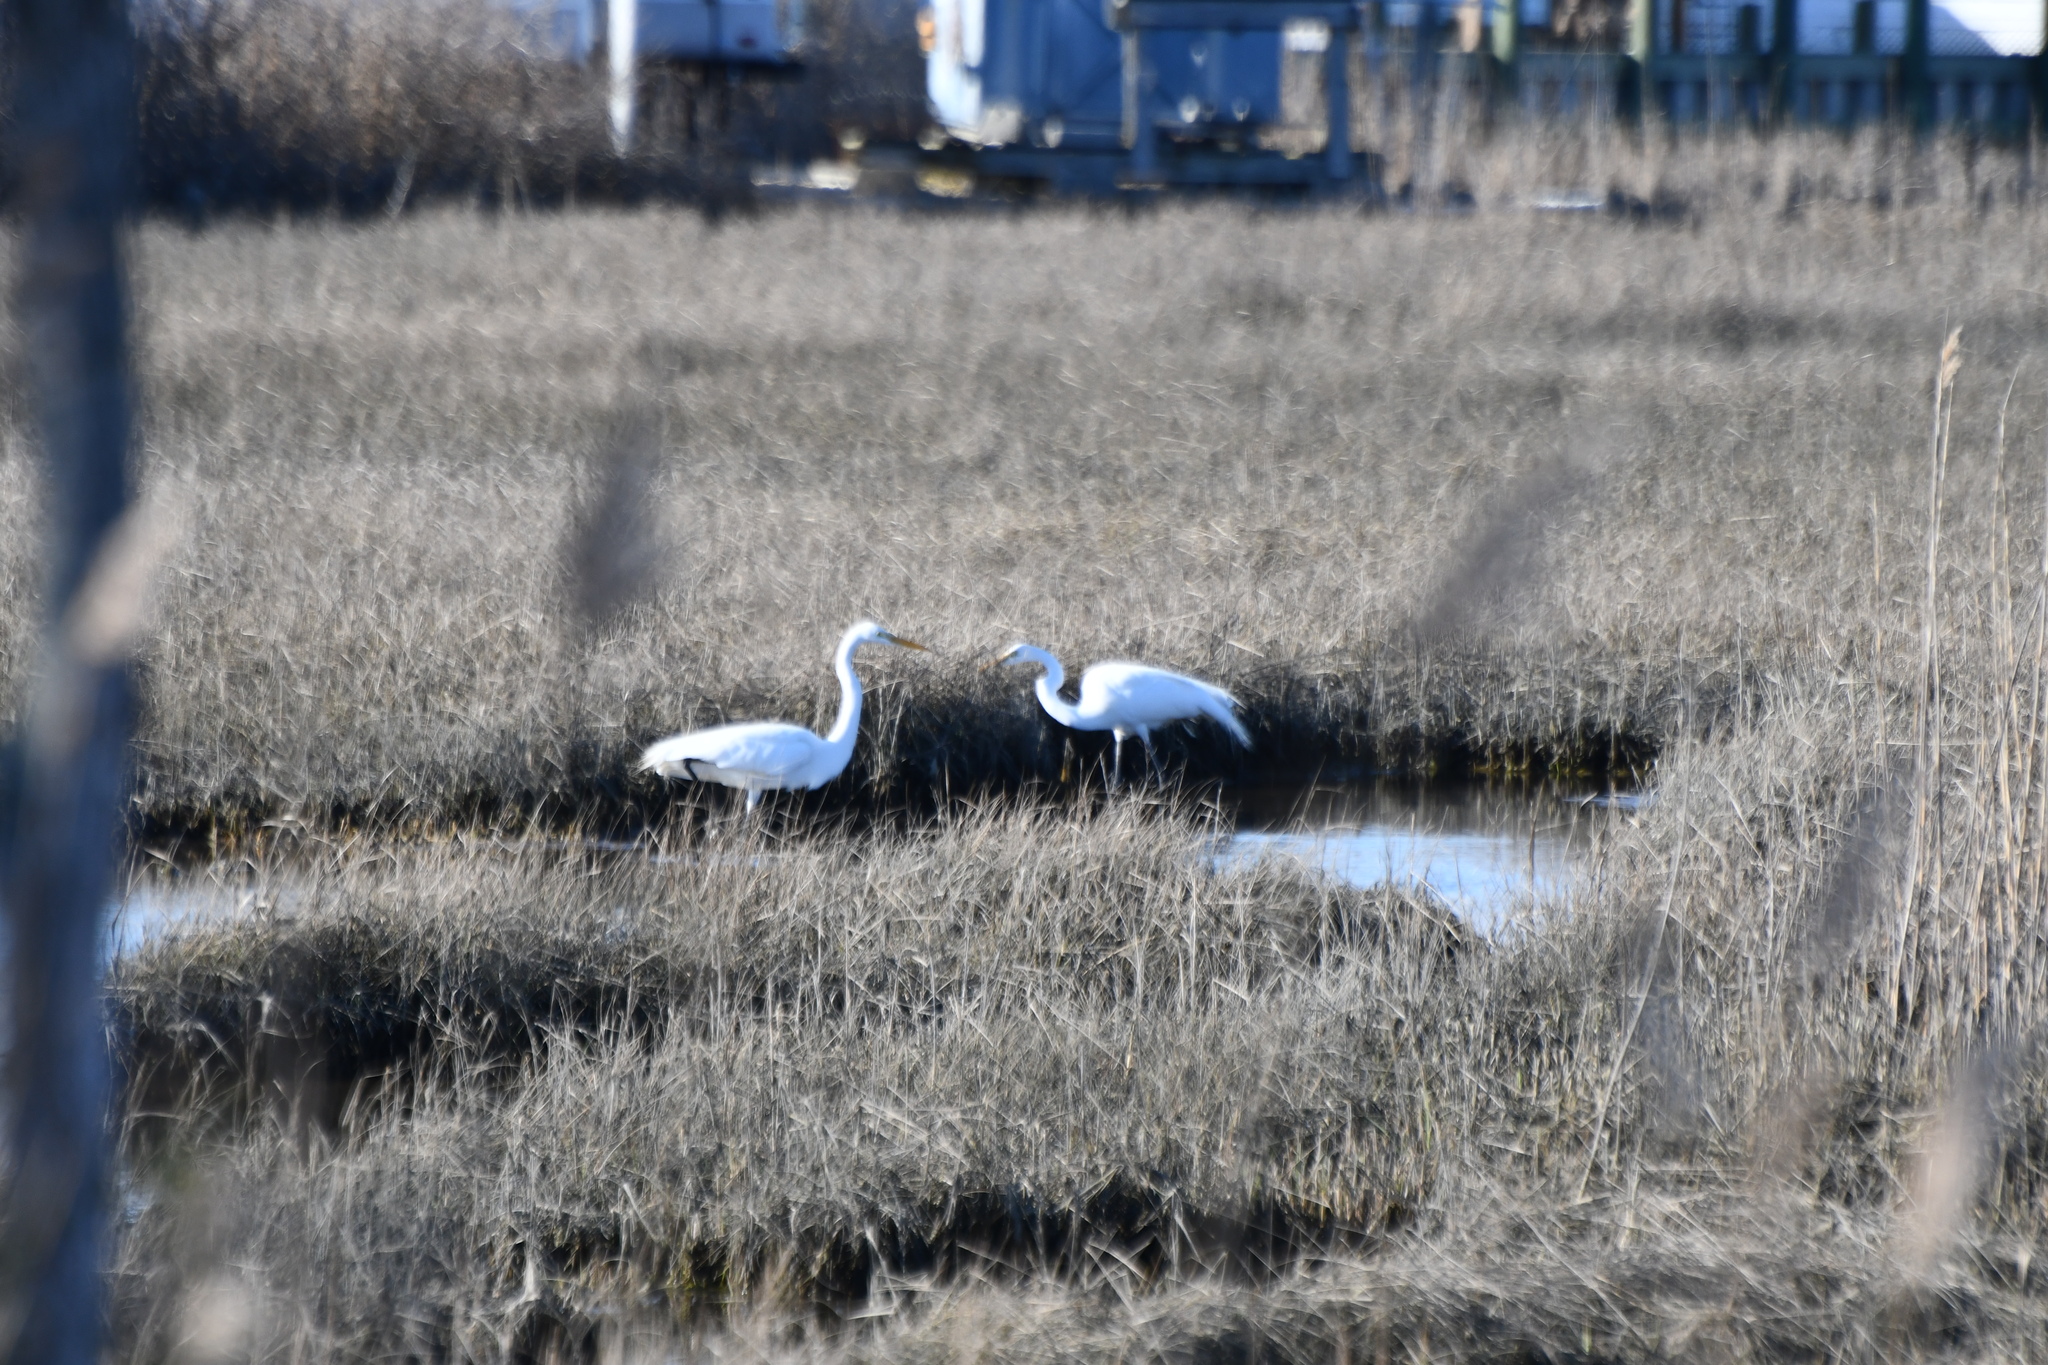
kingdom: Animalia
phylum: Chordata
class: Aves
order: Pelecaniformes
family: Ardeidae
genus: Ardea
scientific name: Ardea alba
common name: Great egret
